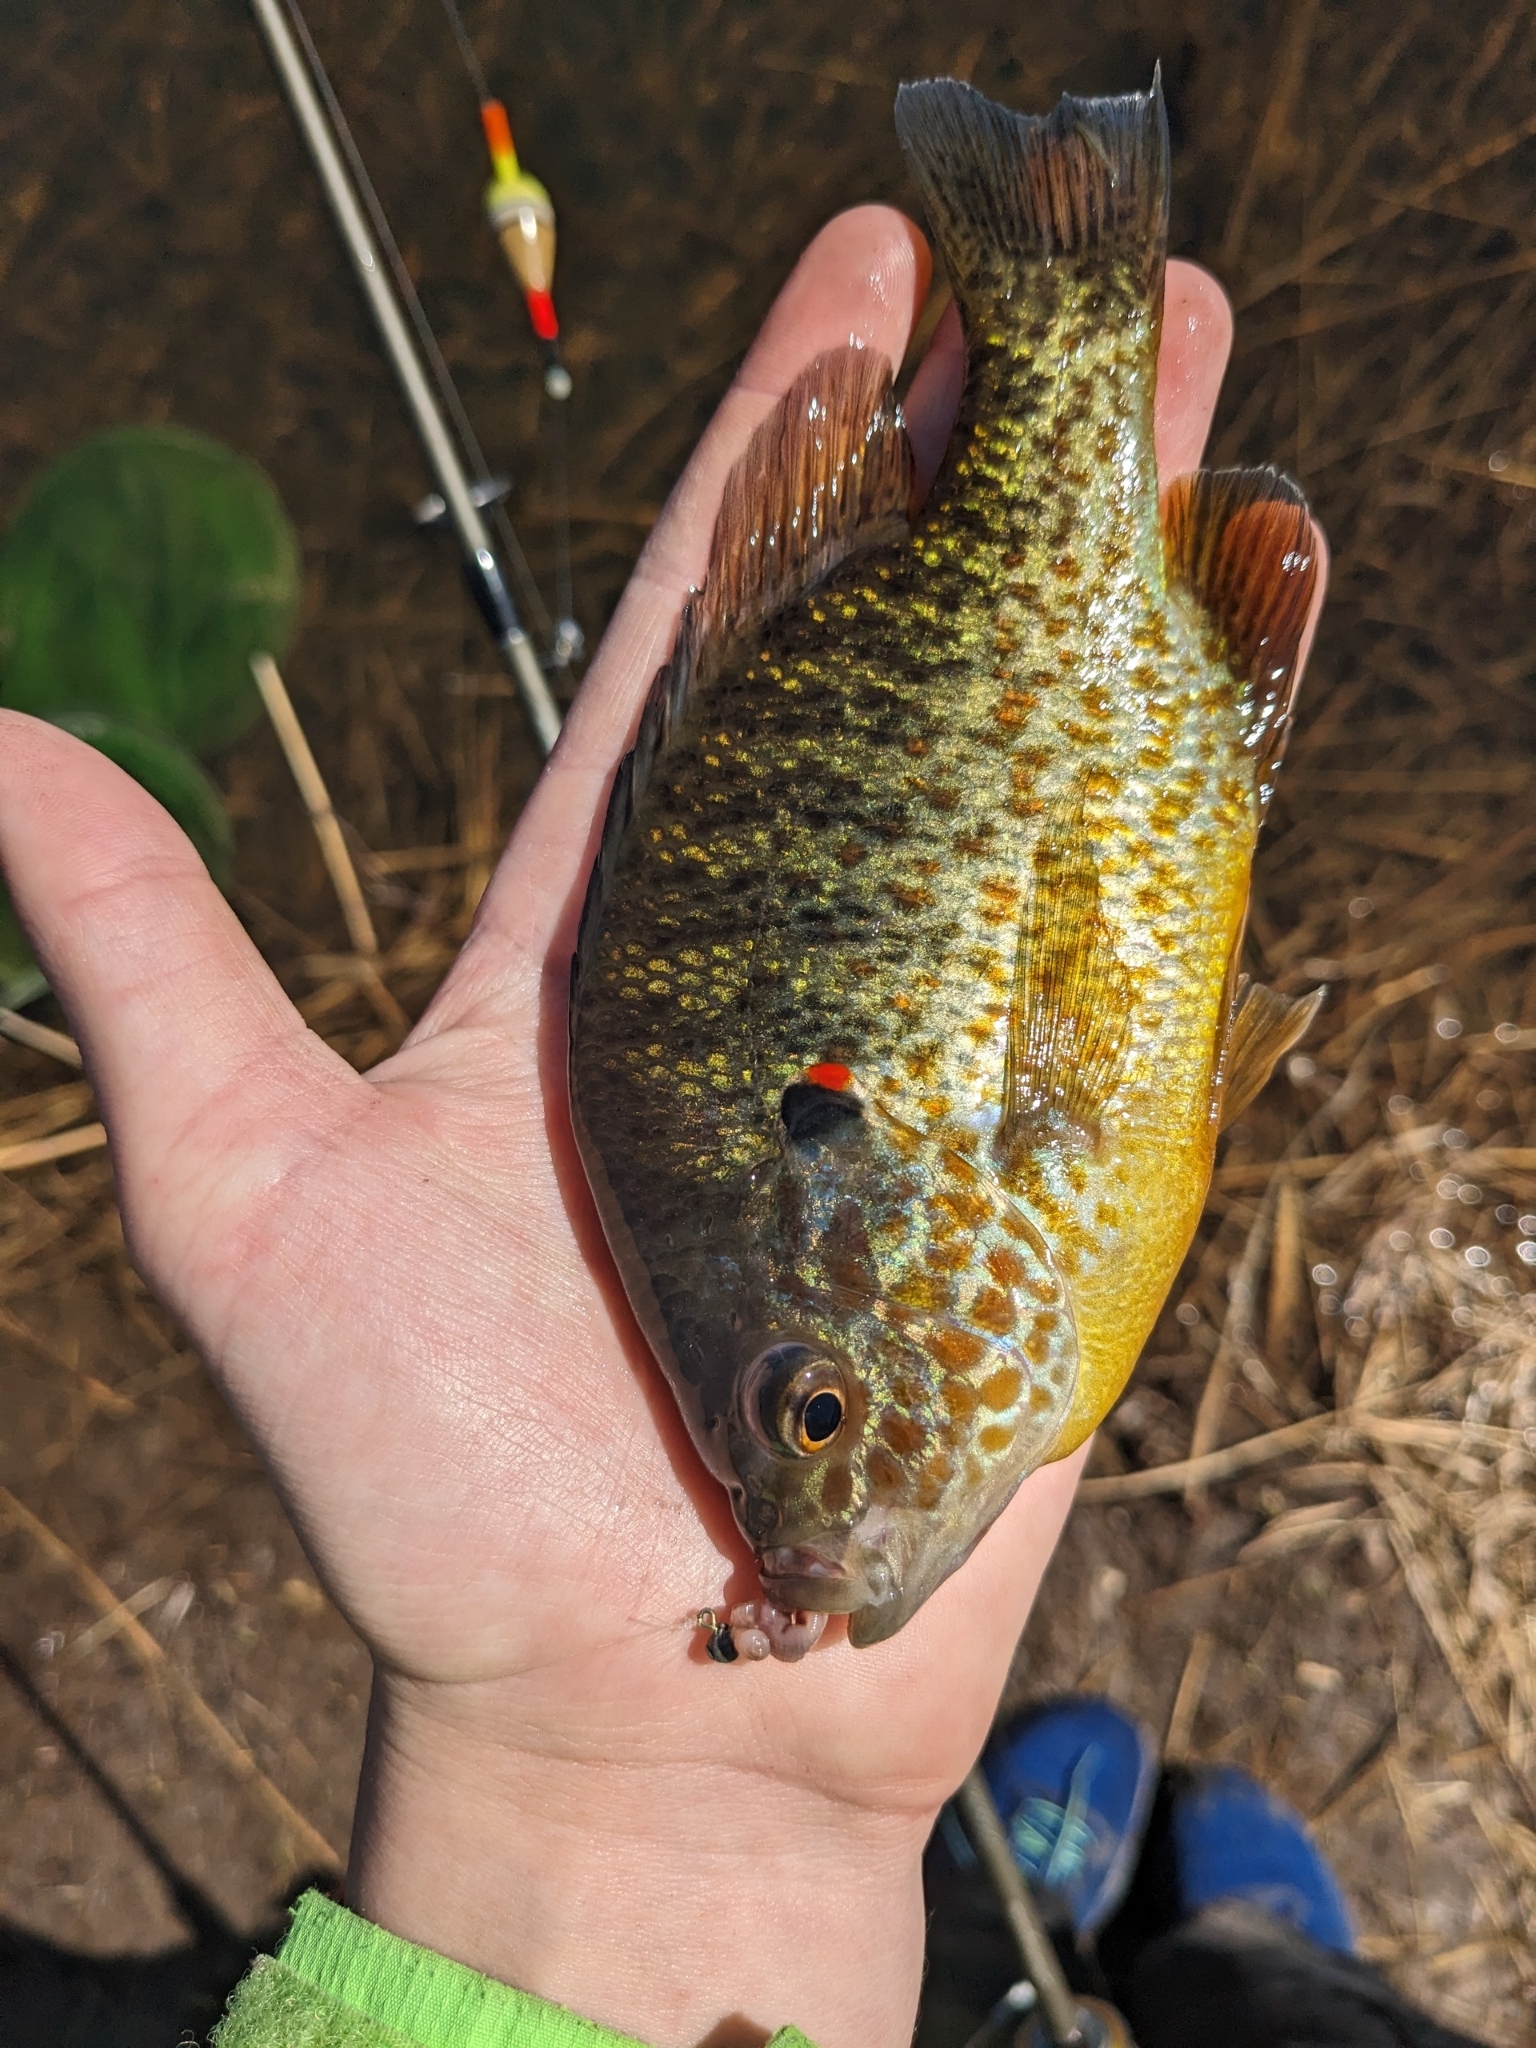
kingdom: Animalia
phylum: Chordata
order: Perciformes
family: Centrarchidae
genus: Lepomis
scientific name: Lepomis gibbosus
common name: Pumpkinseed
